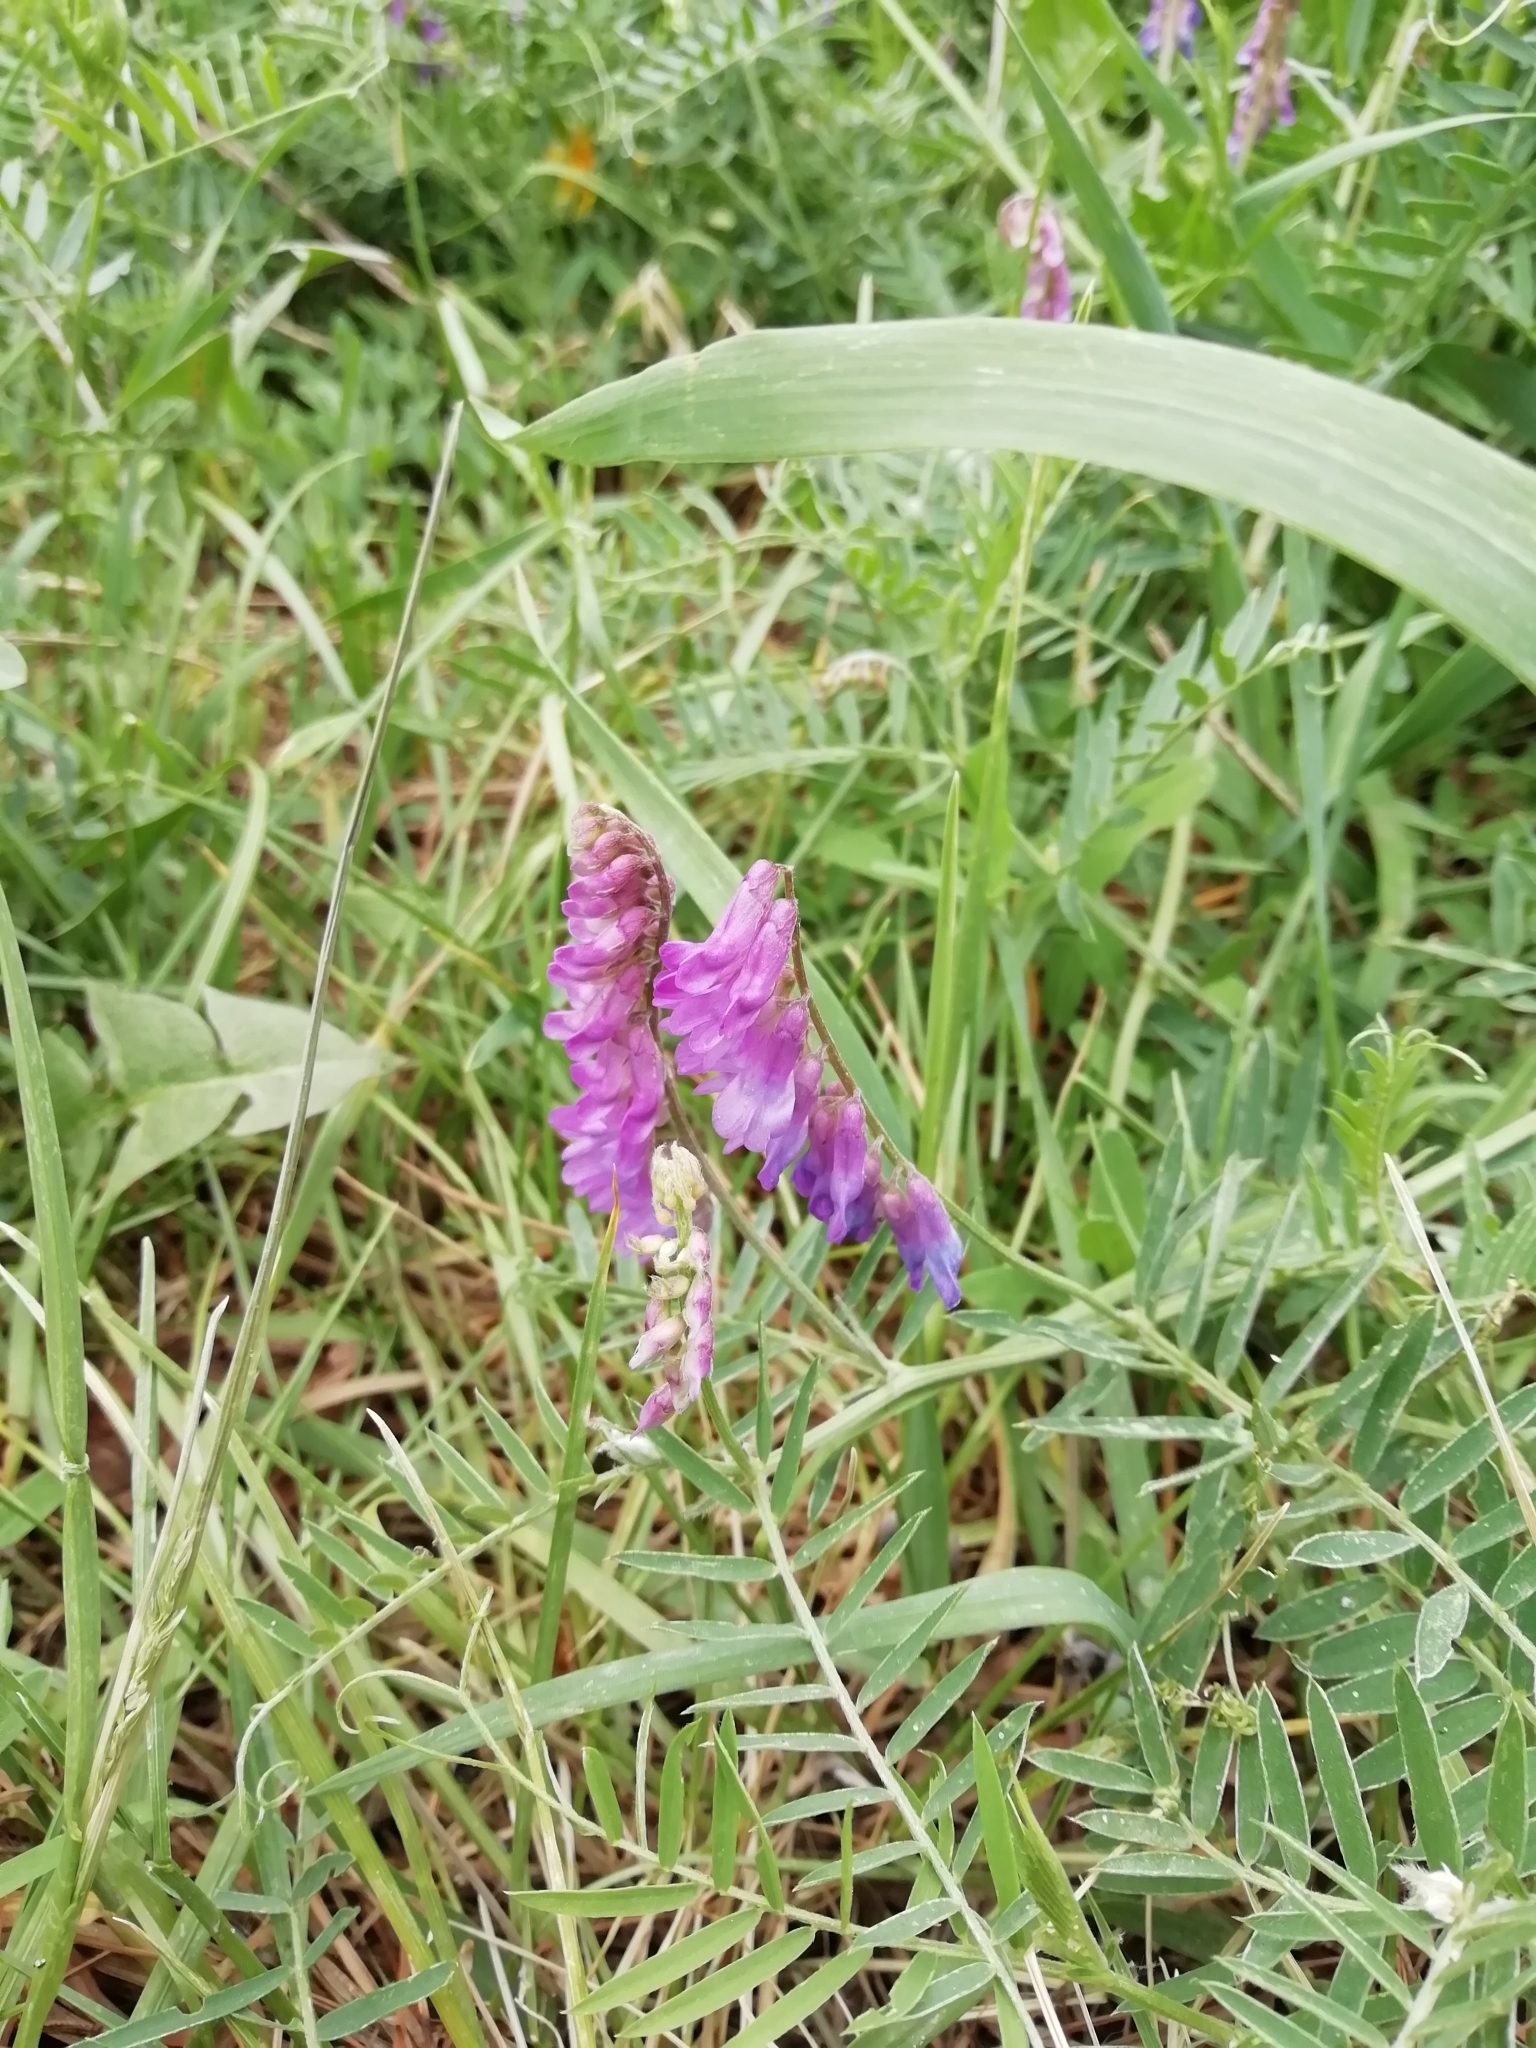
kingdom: Plantae
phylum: Tracheophyta
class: Magnoliopsida
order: Fabales
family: Fabaceae
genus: Vicia
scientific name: Vicia cracca
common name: Bird vetch
